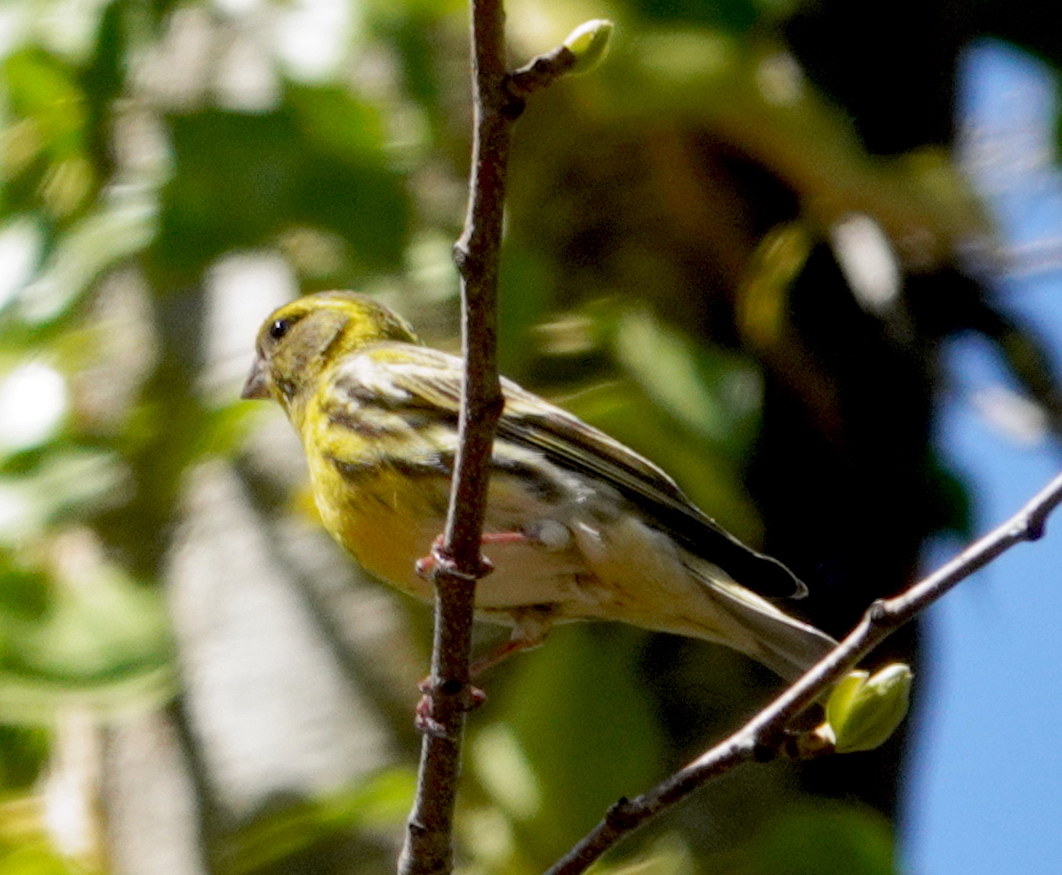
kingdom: Animalia
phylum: Chordata
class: Aves
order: Passeriformes
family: Fringillidae
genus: Serinus
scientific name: Serinus serinus
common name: European serin
